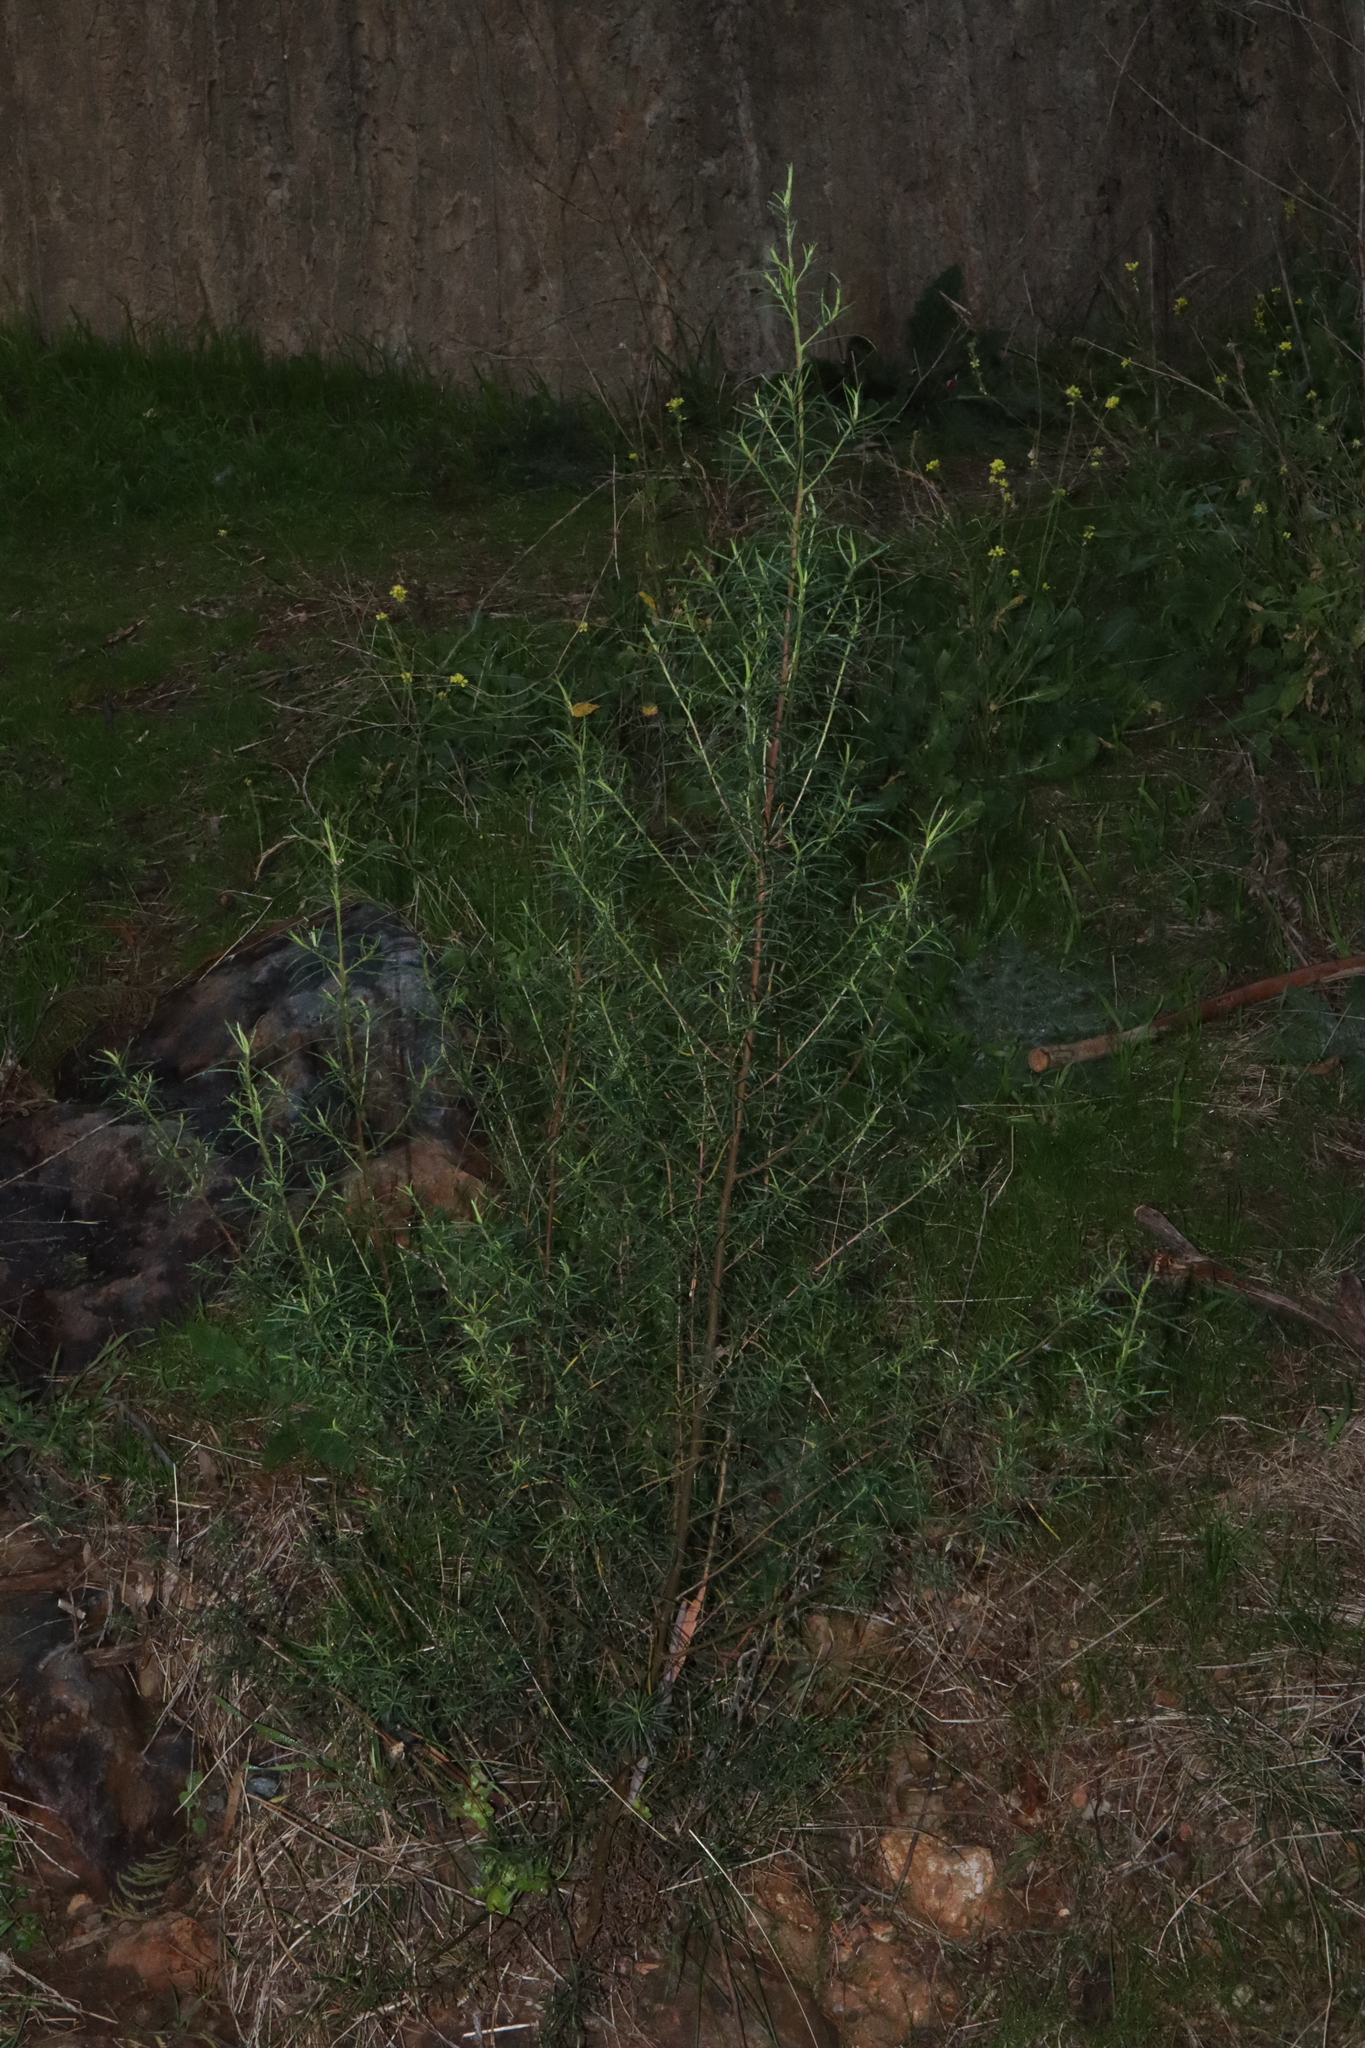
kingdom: Plantae
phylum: Tracheophyta
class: Magnoliopsida
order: Asterales
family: Asteraceae
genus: Cassinia
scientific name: Cassinia quinquefaria
